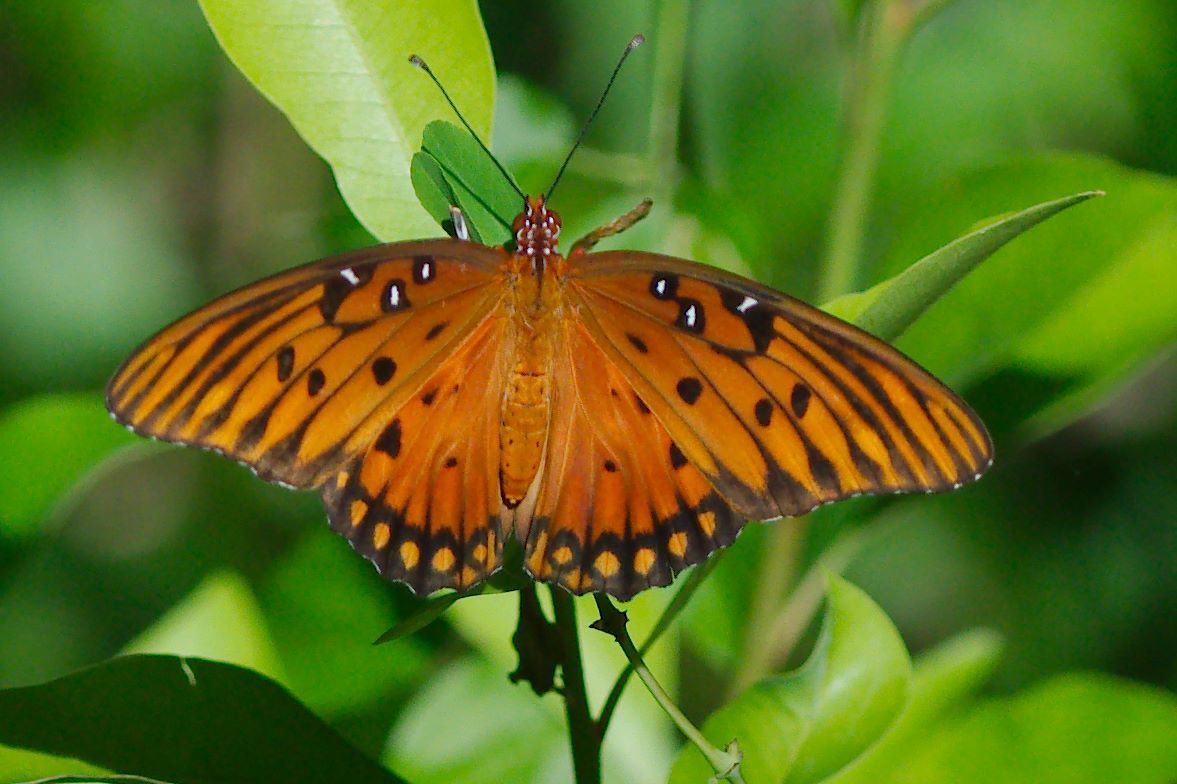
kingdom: Animalia
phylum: Arthropoda
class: Insecta
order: Lepidoptera
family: Nymphalidae
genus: Dione
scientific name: Dione vanillae
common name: Gulf fritillary
